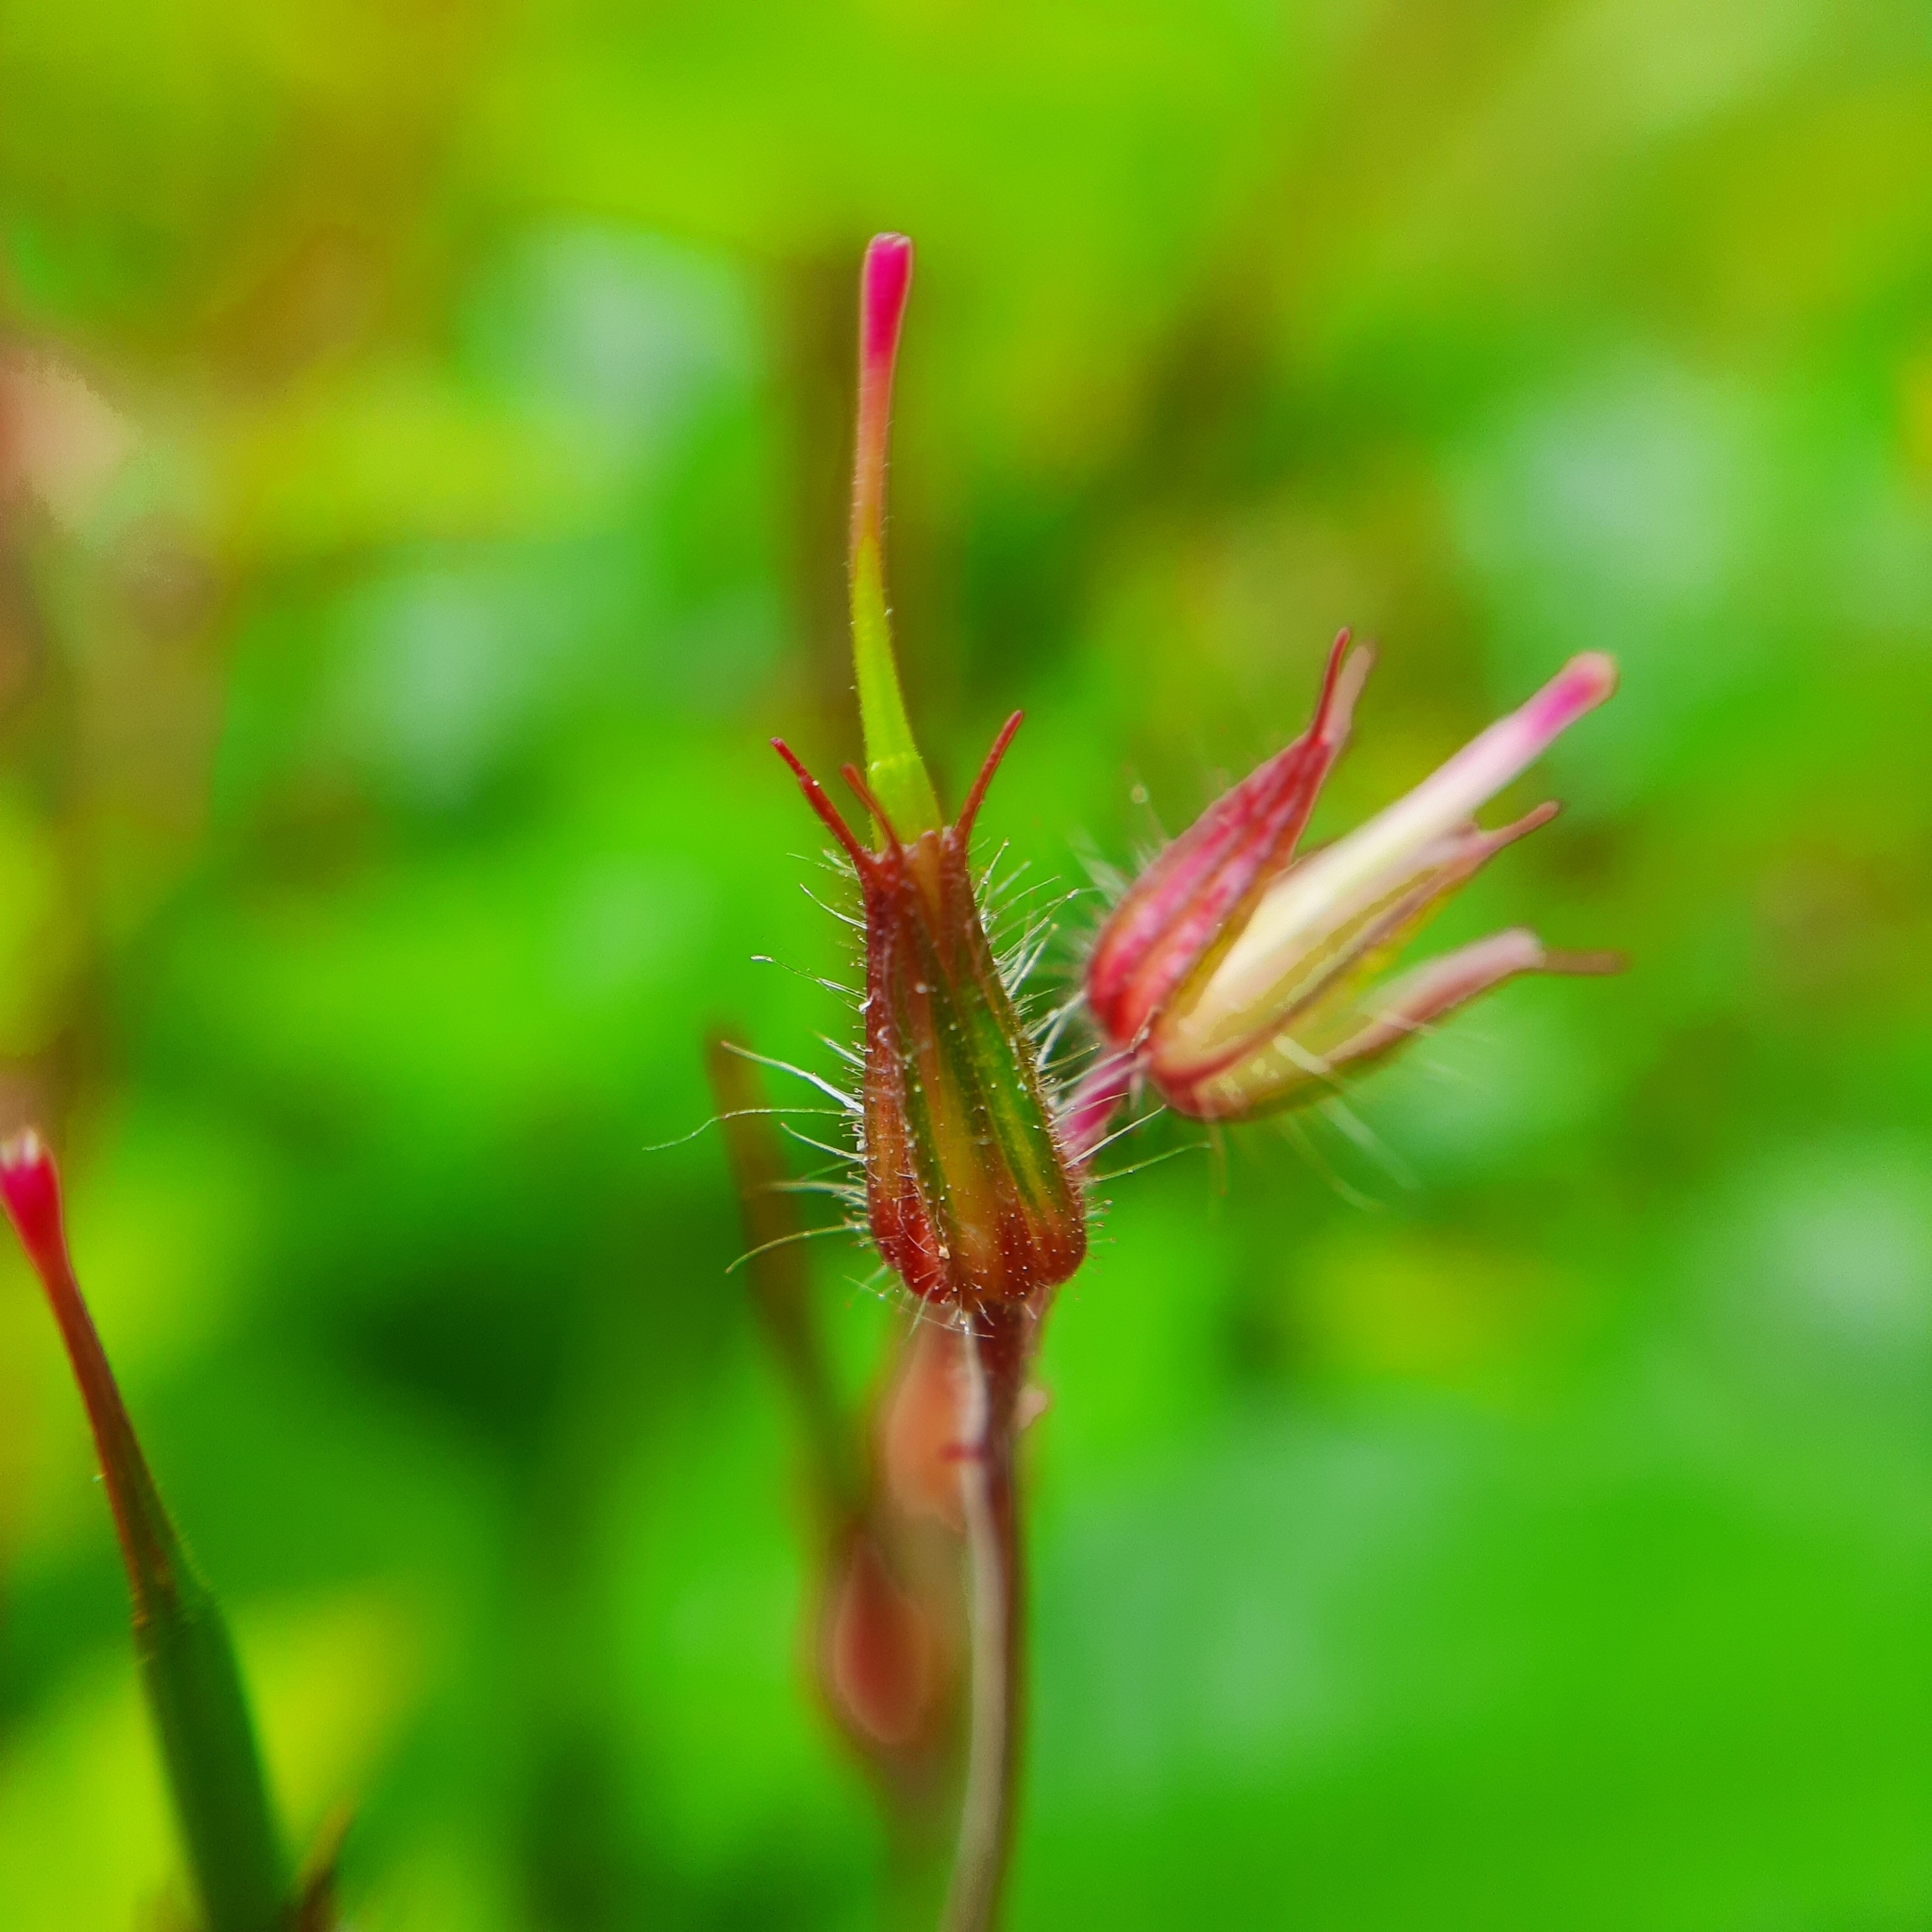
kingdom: Plantae
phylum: Tracheophyta
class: Magnoliopsida
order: Geraniales
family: Geraniaceae
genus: Geranium
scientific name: Geranium robertianum
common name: Herb-robert
